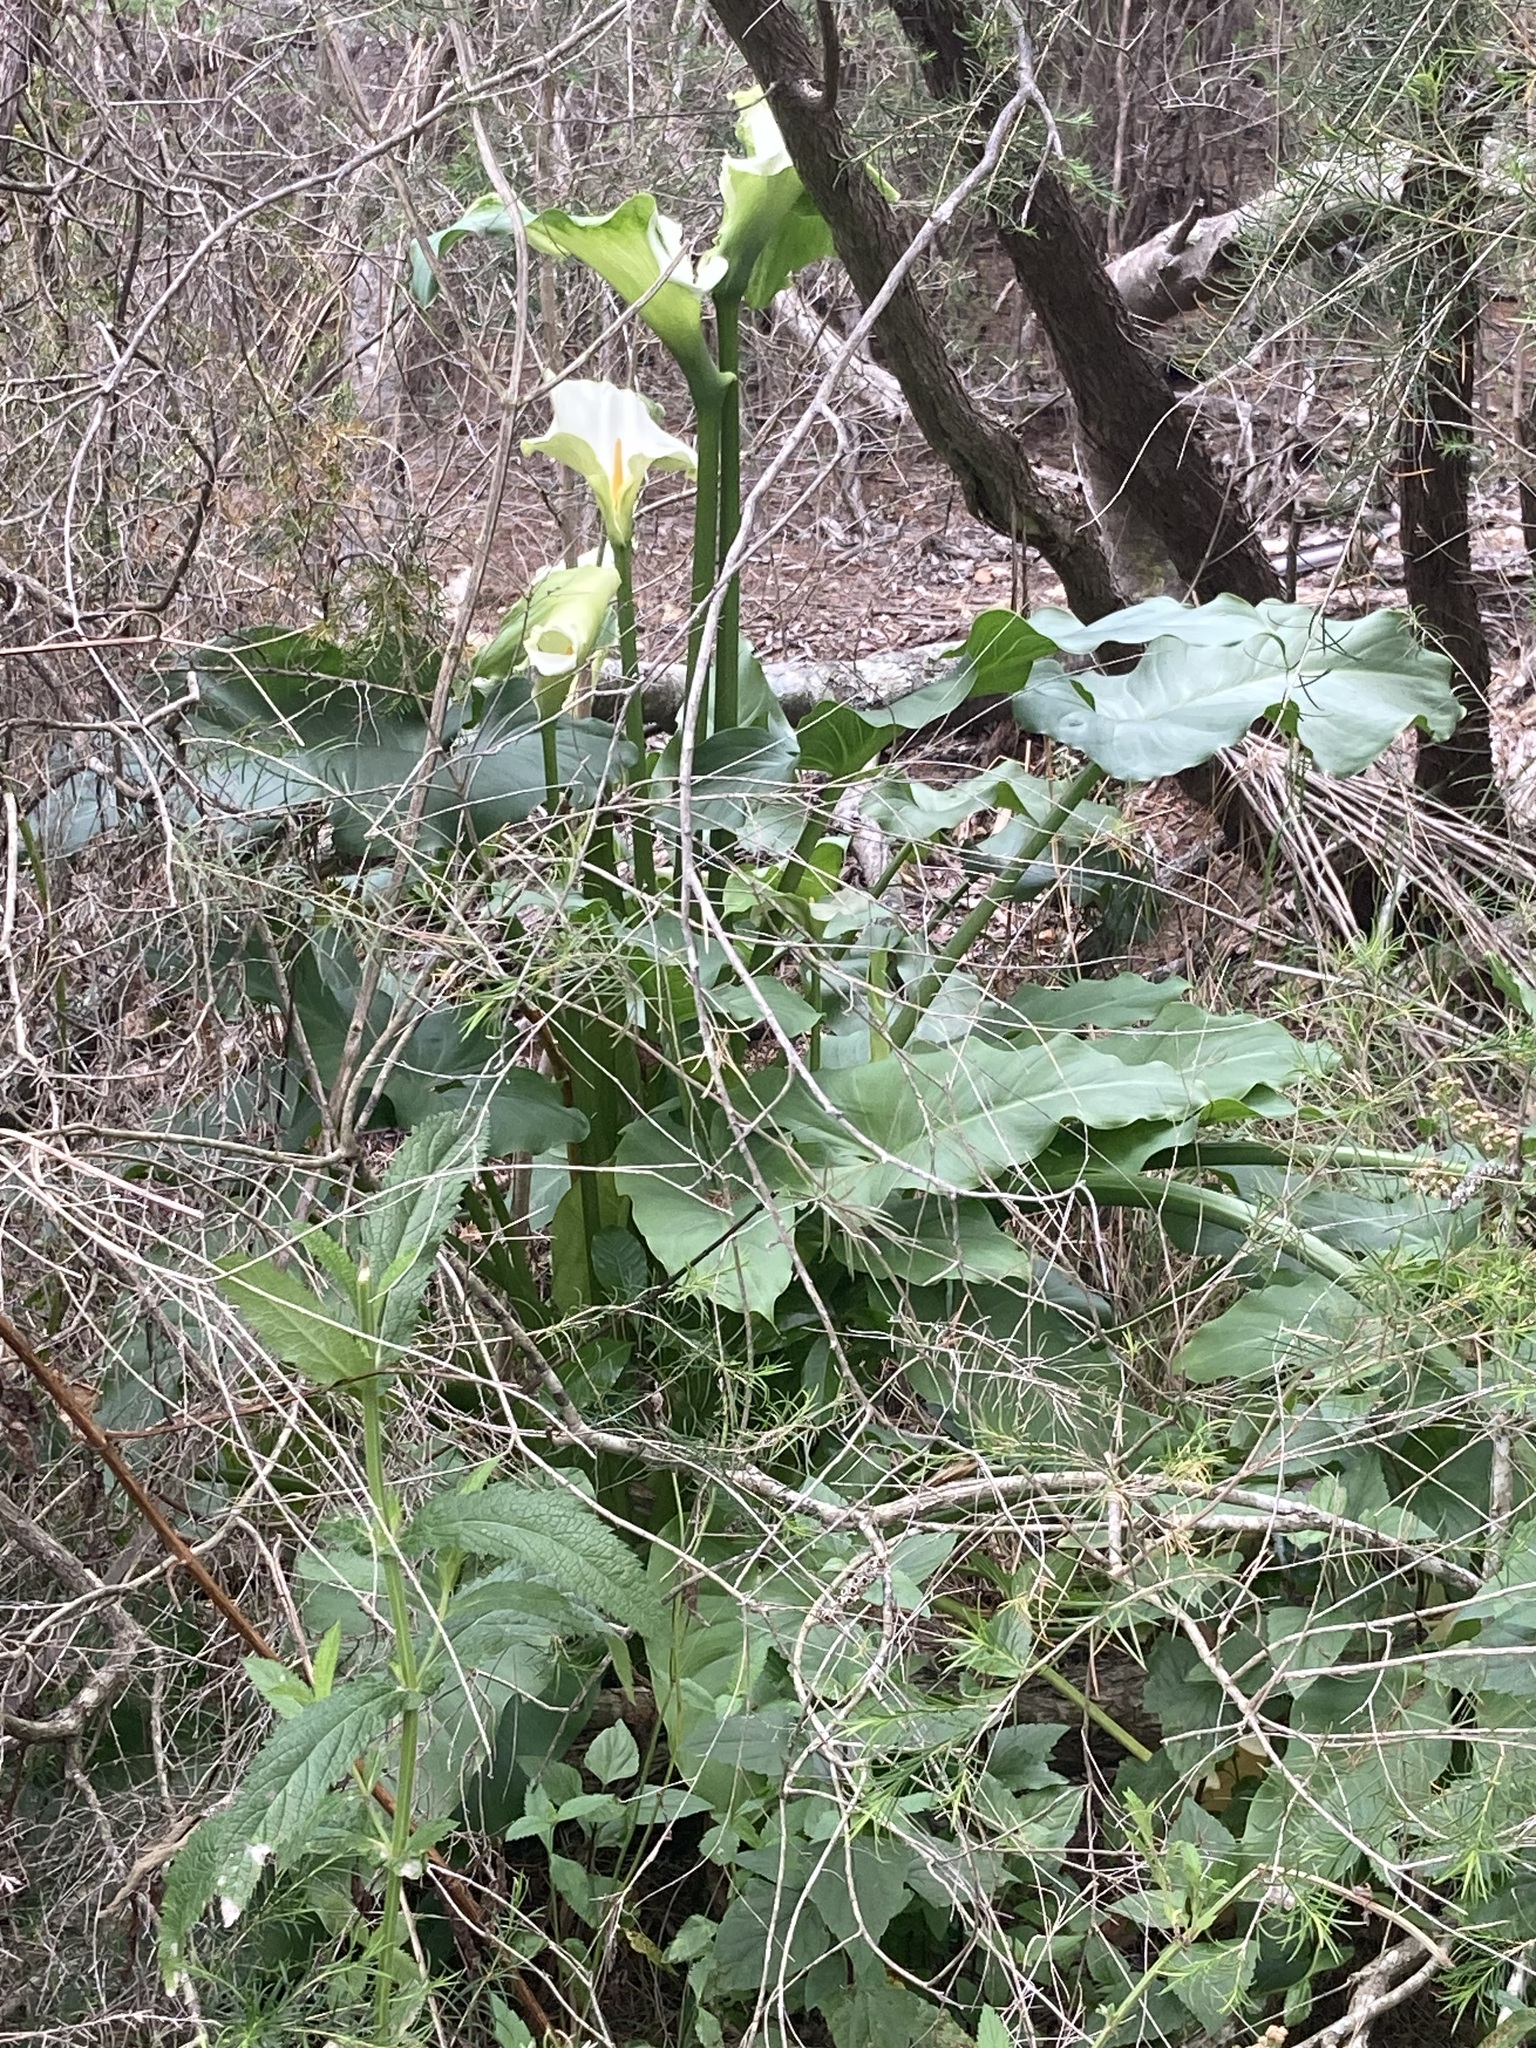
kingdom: Plantae
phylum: Tracheophyta
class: Liliopsida
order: Alismatales
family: Araceae
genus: Zantedeschia
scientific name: Zantedeschia aethiopica
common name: Altar-lily
